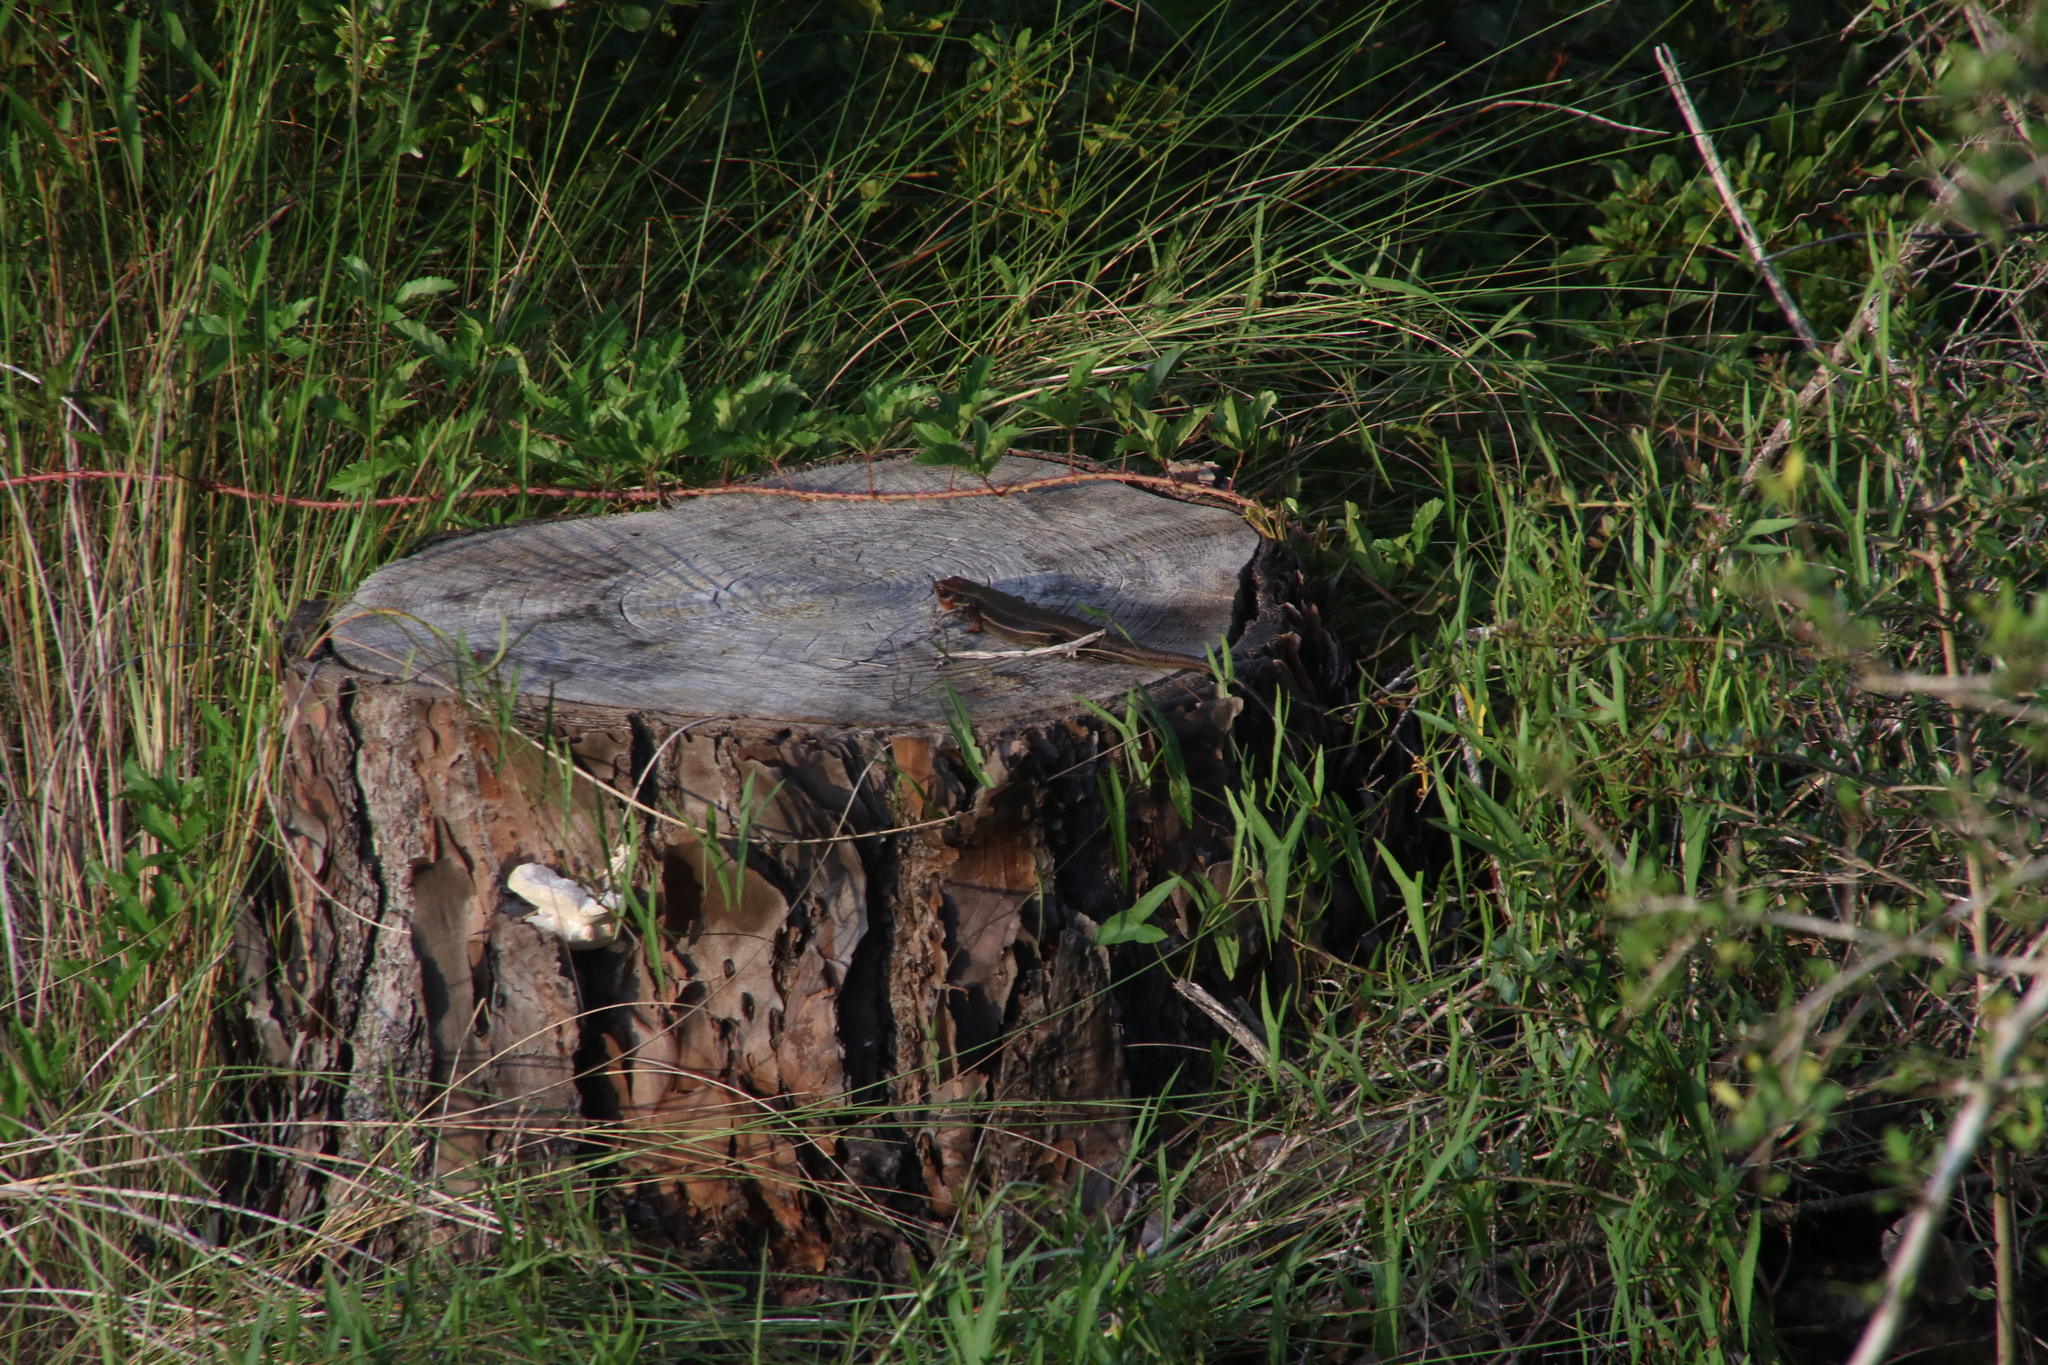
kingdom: Animalia
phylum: Chordata
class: Squamata
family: Scincidae
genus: Plestiodon
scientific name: Plestiodon laticeps
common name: Broadhead skink
